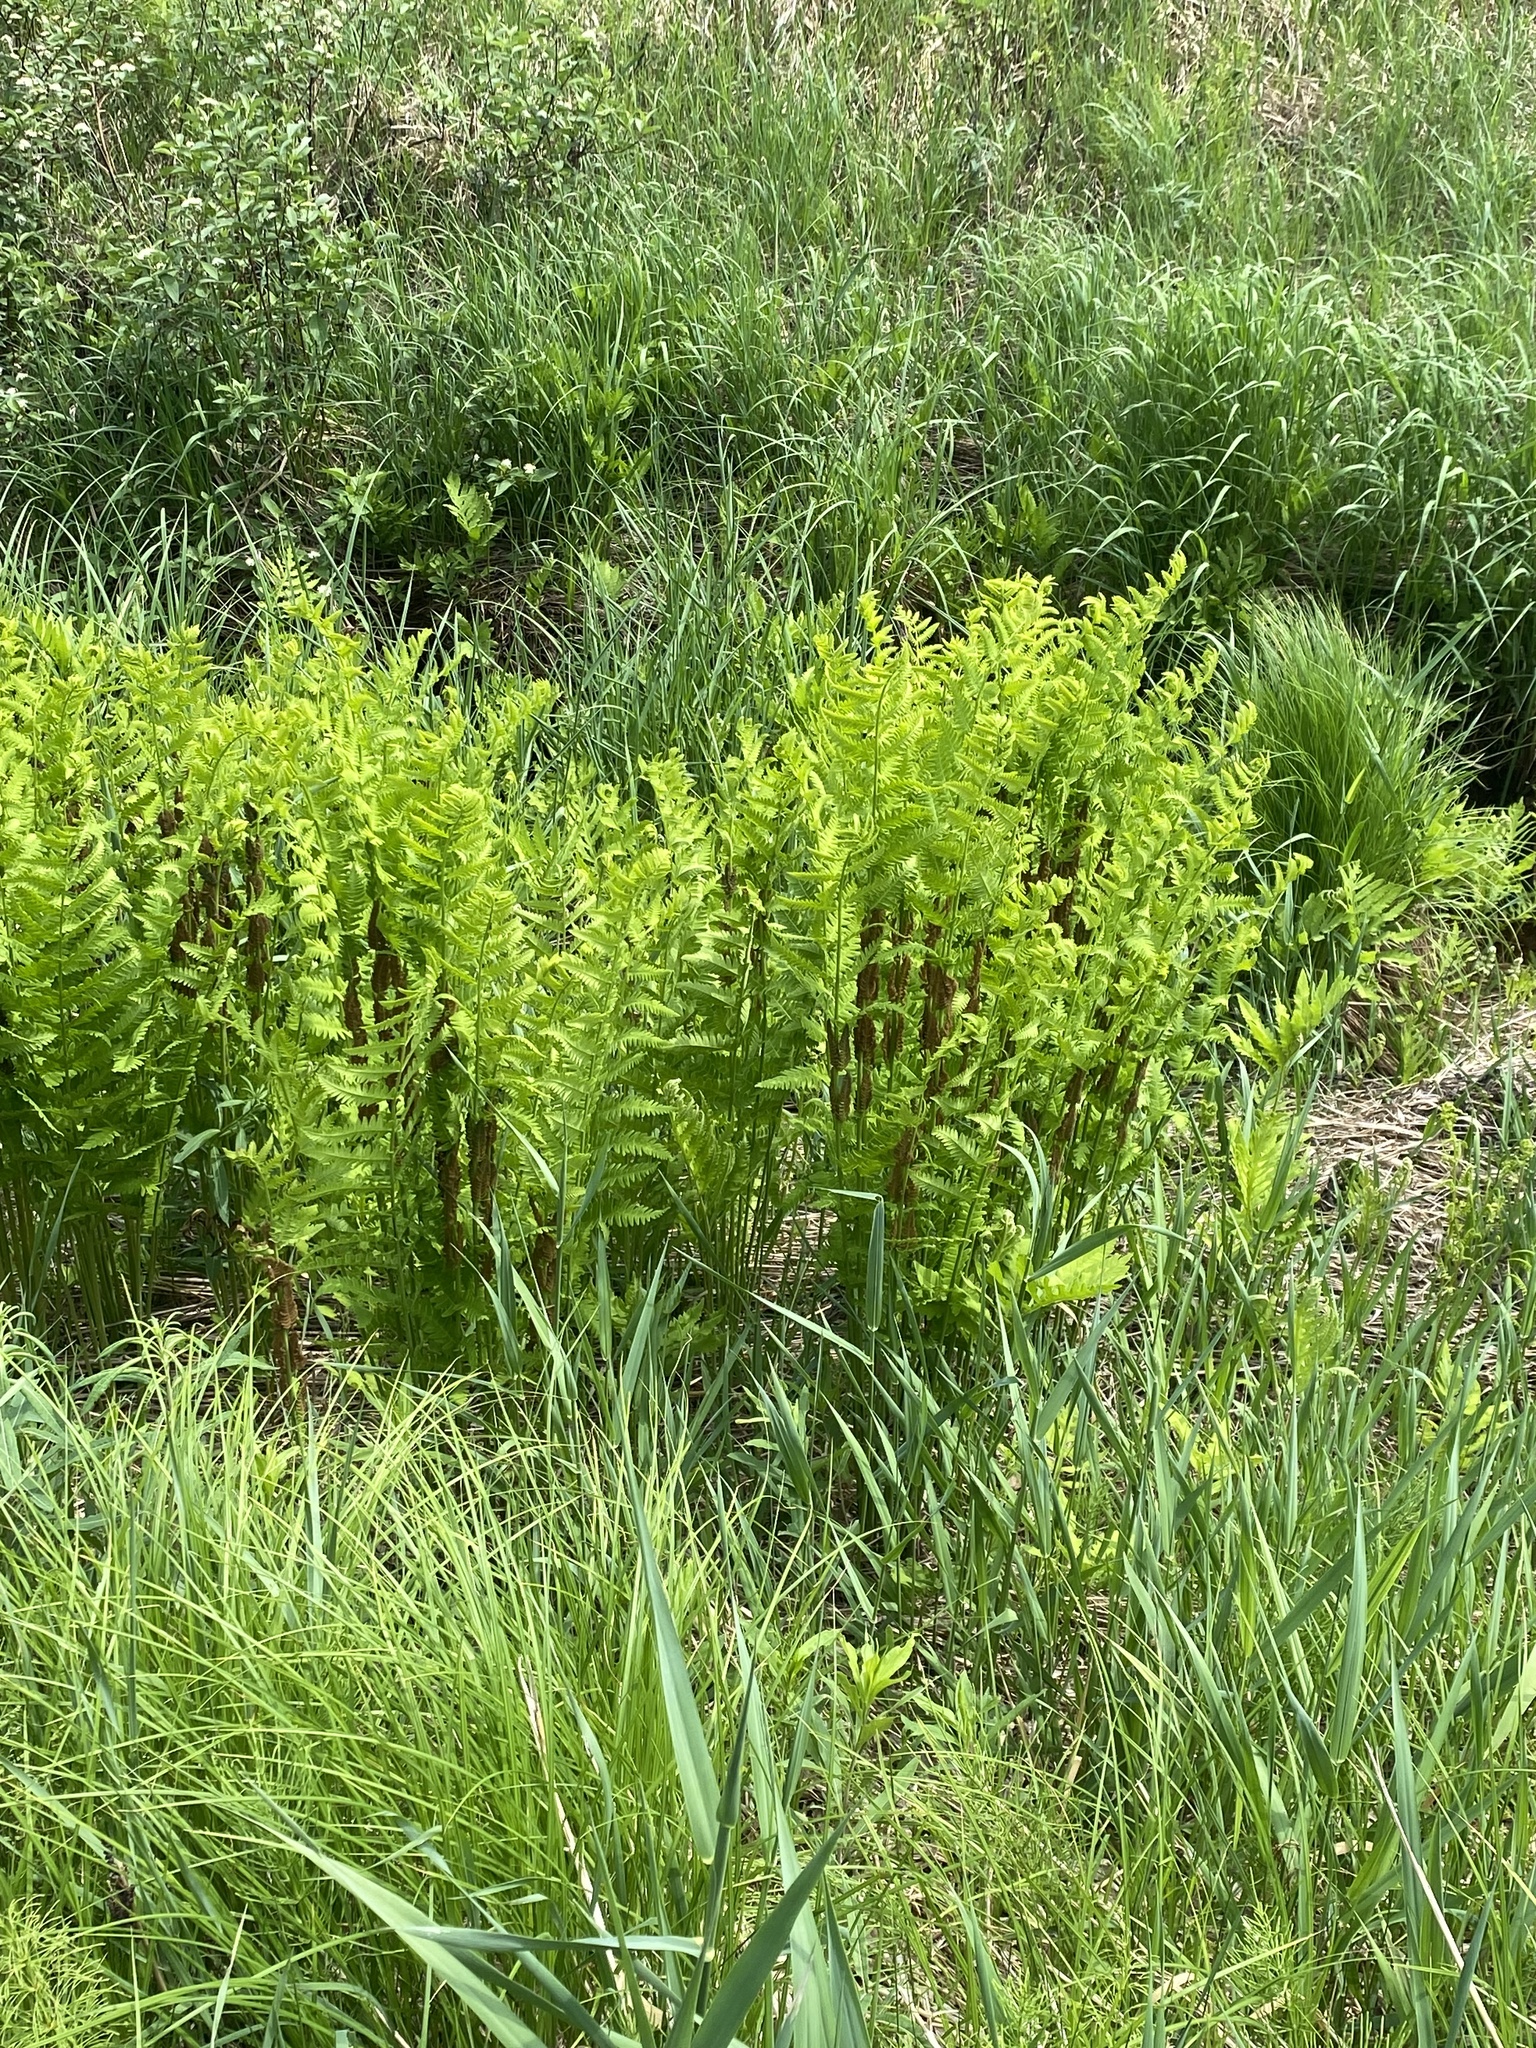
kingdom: Plantae
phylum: Tracheophyta
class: Polypodiopsida
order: Osmundales
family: Osmundaceae
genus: Claytosmunda
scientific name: Claytosmunda claytoniana
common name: Clayton's fern
